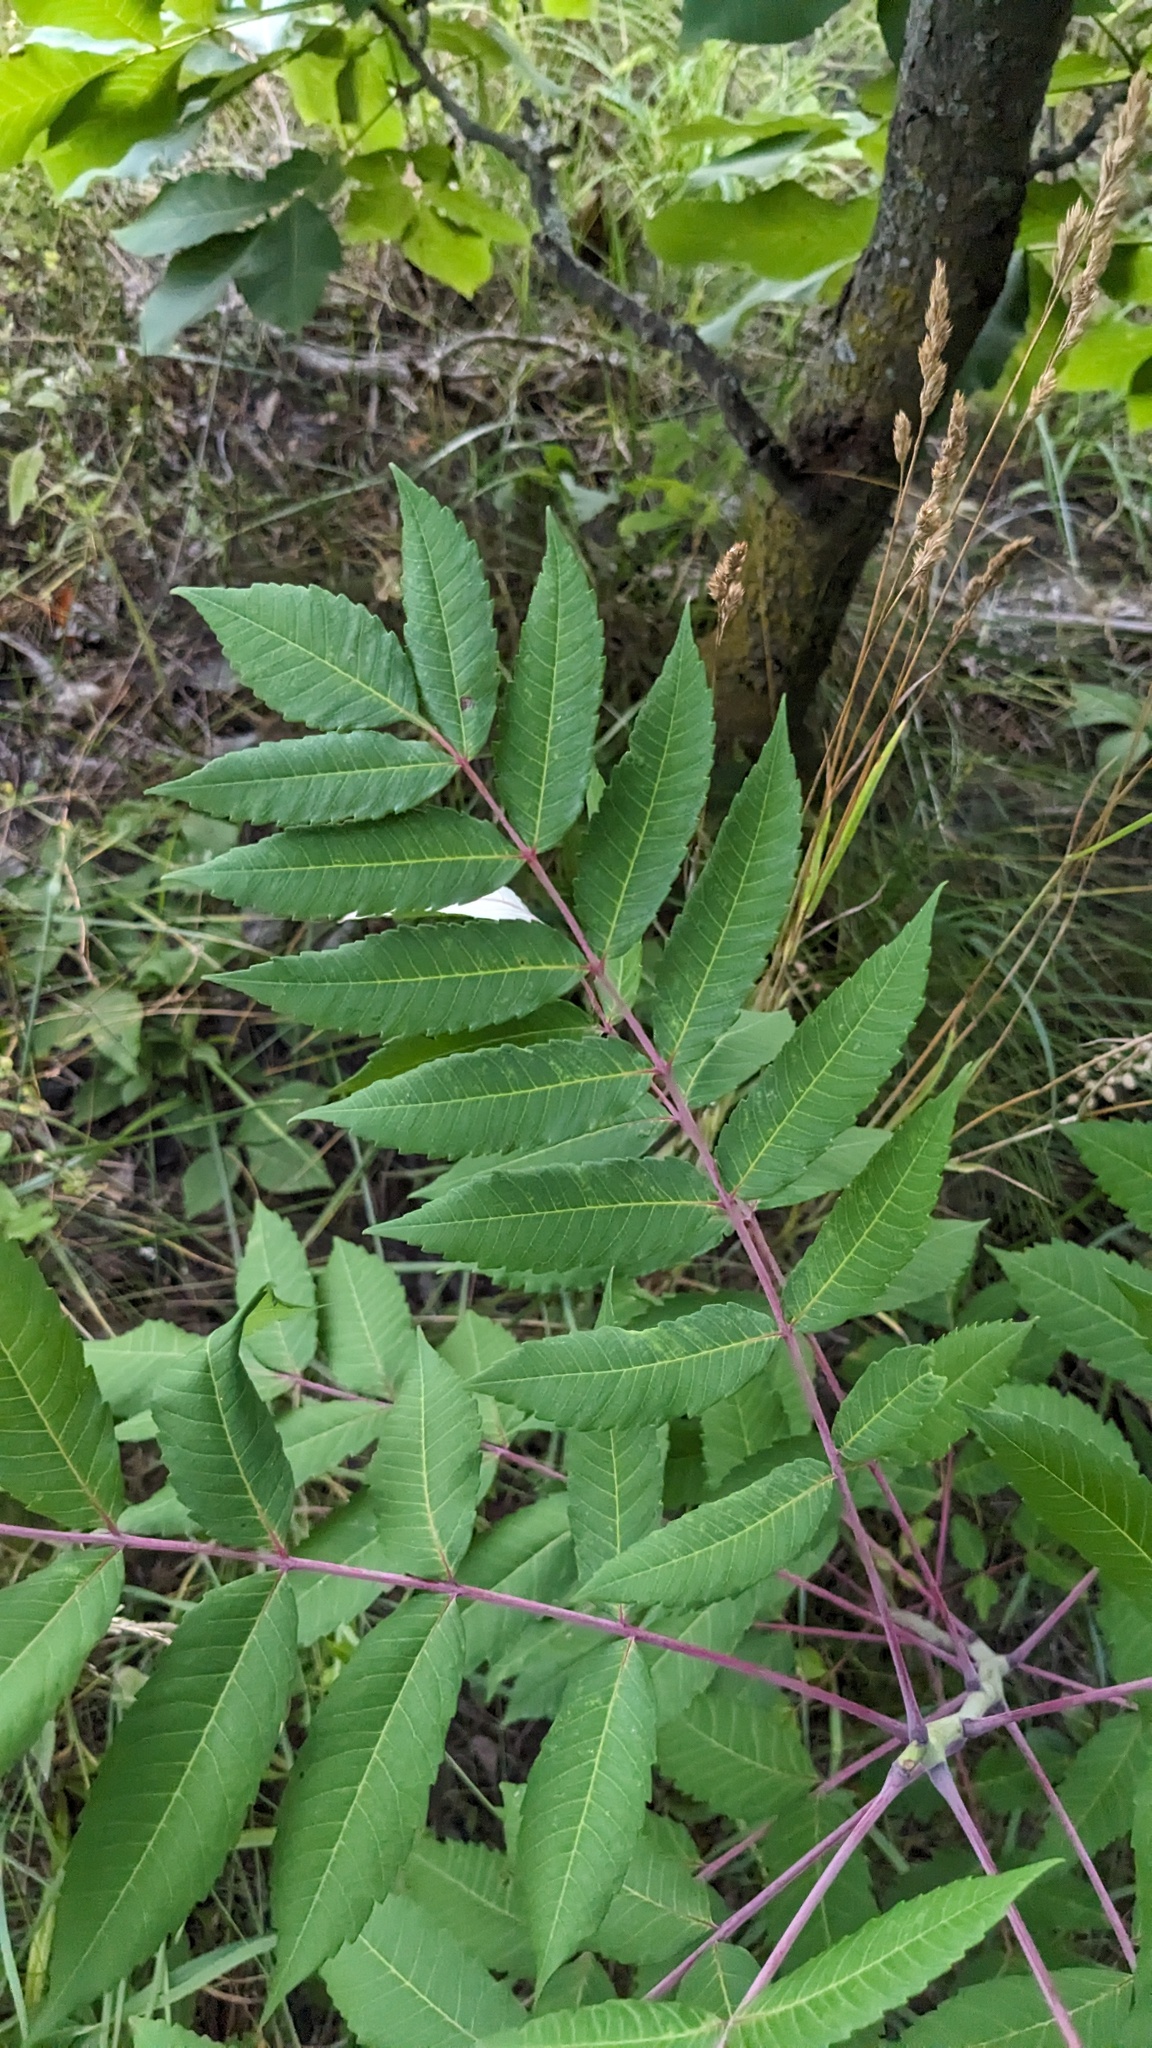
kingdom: Plantae
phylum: Tracheophyta
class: Magnoliopsida
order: Sapindales
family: Anacardiaceae
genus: Rhus
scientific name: Rhus glabra
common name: Scarlet sumac
